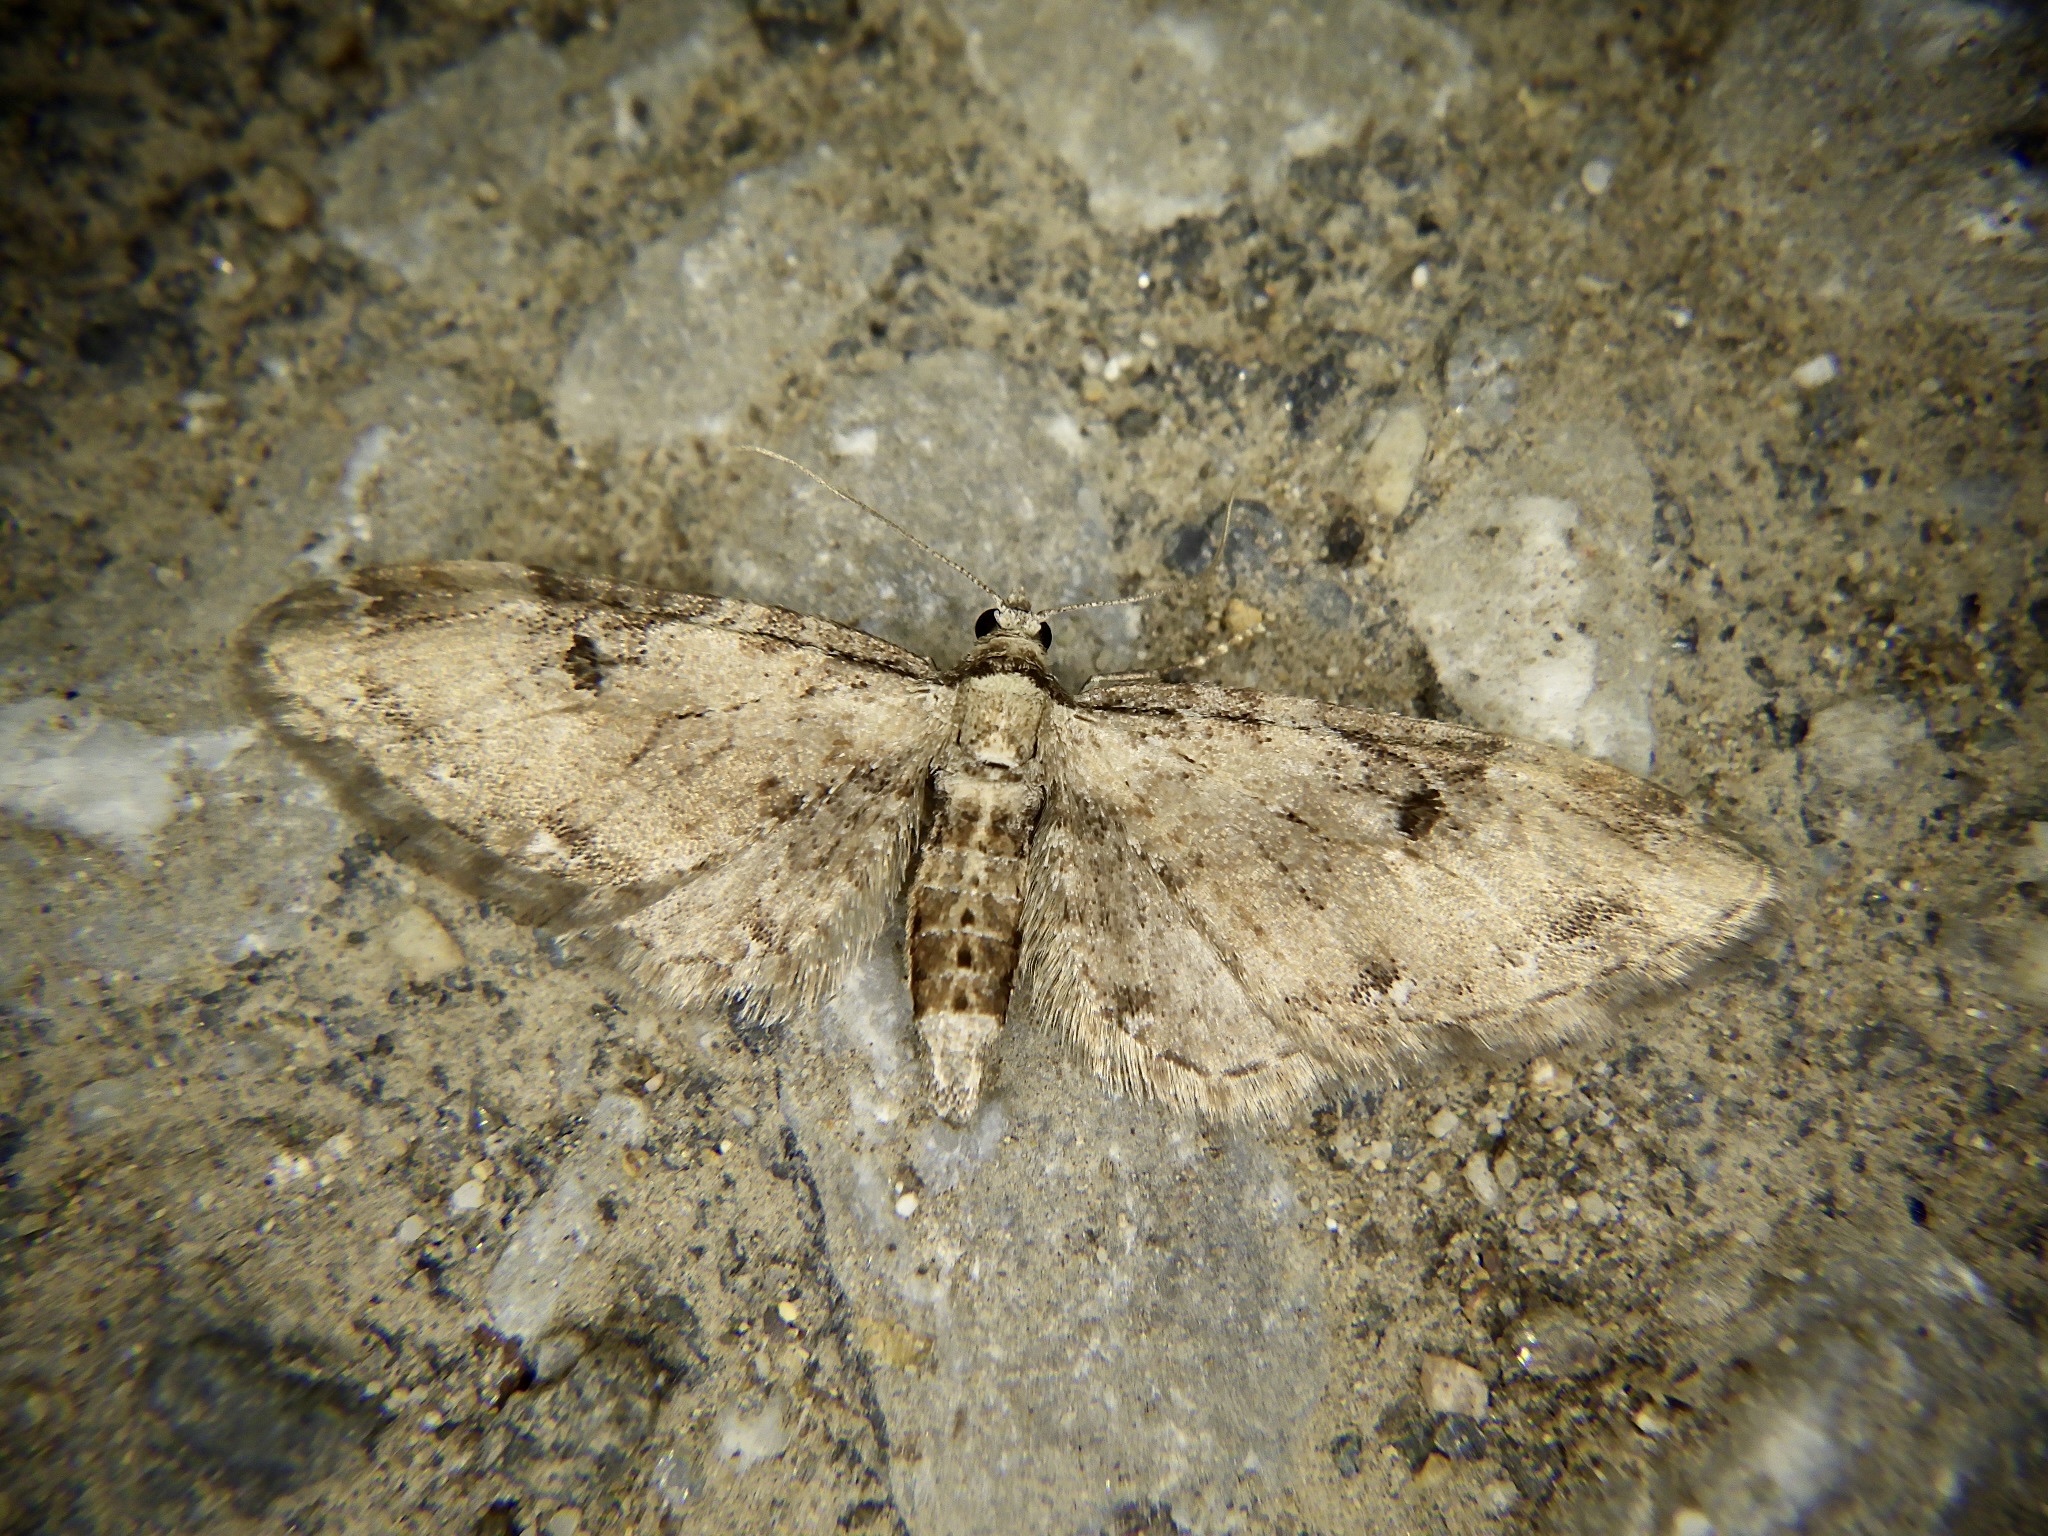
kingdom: Animalia
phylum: Arthropoda
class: Insecta
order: Lepidoptera
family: Geometridae
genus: Eupithecia
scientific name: Eupithecia proterva
